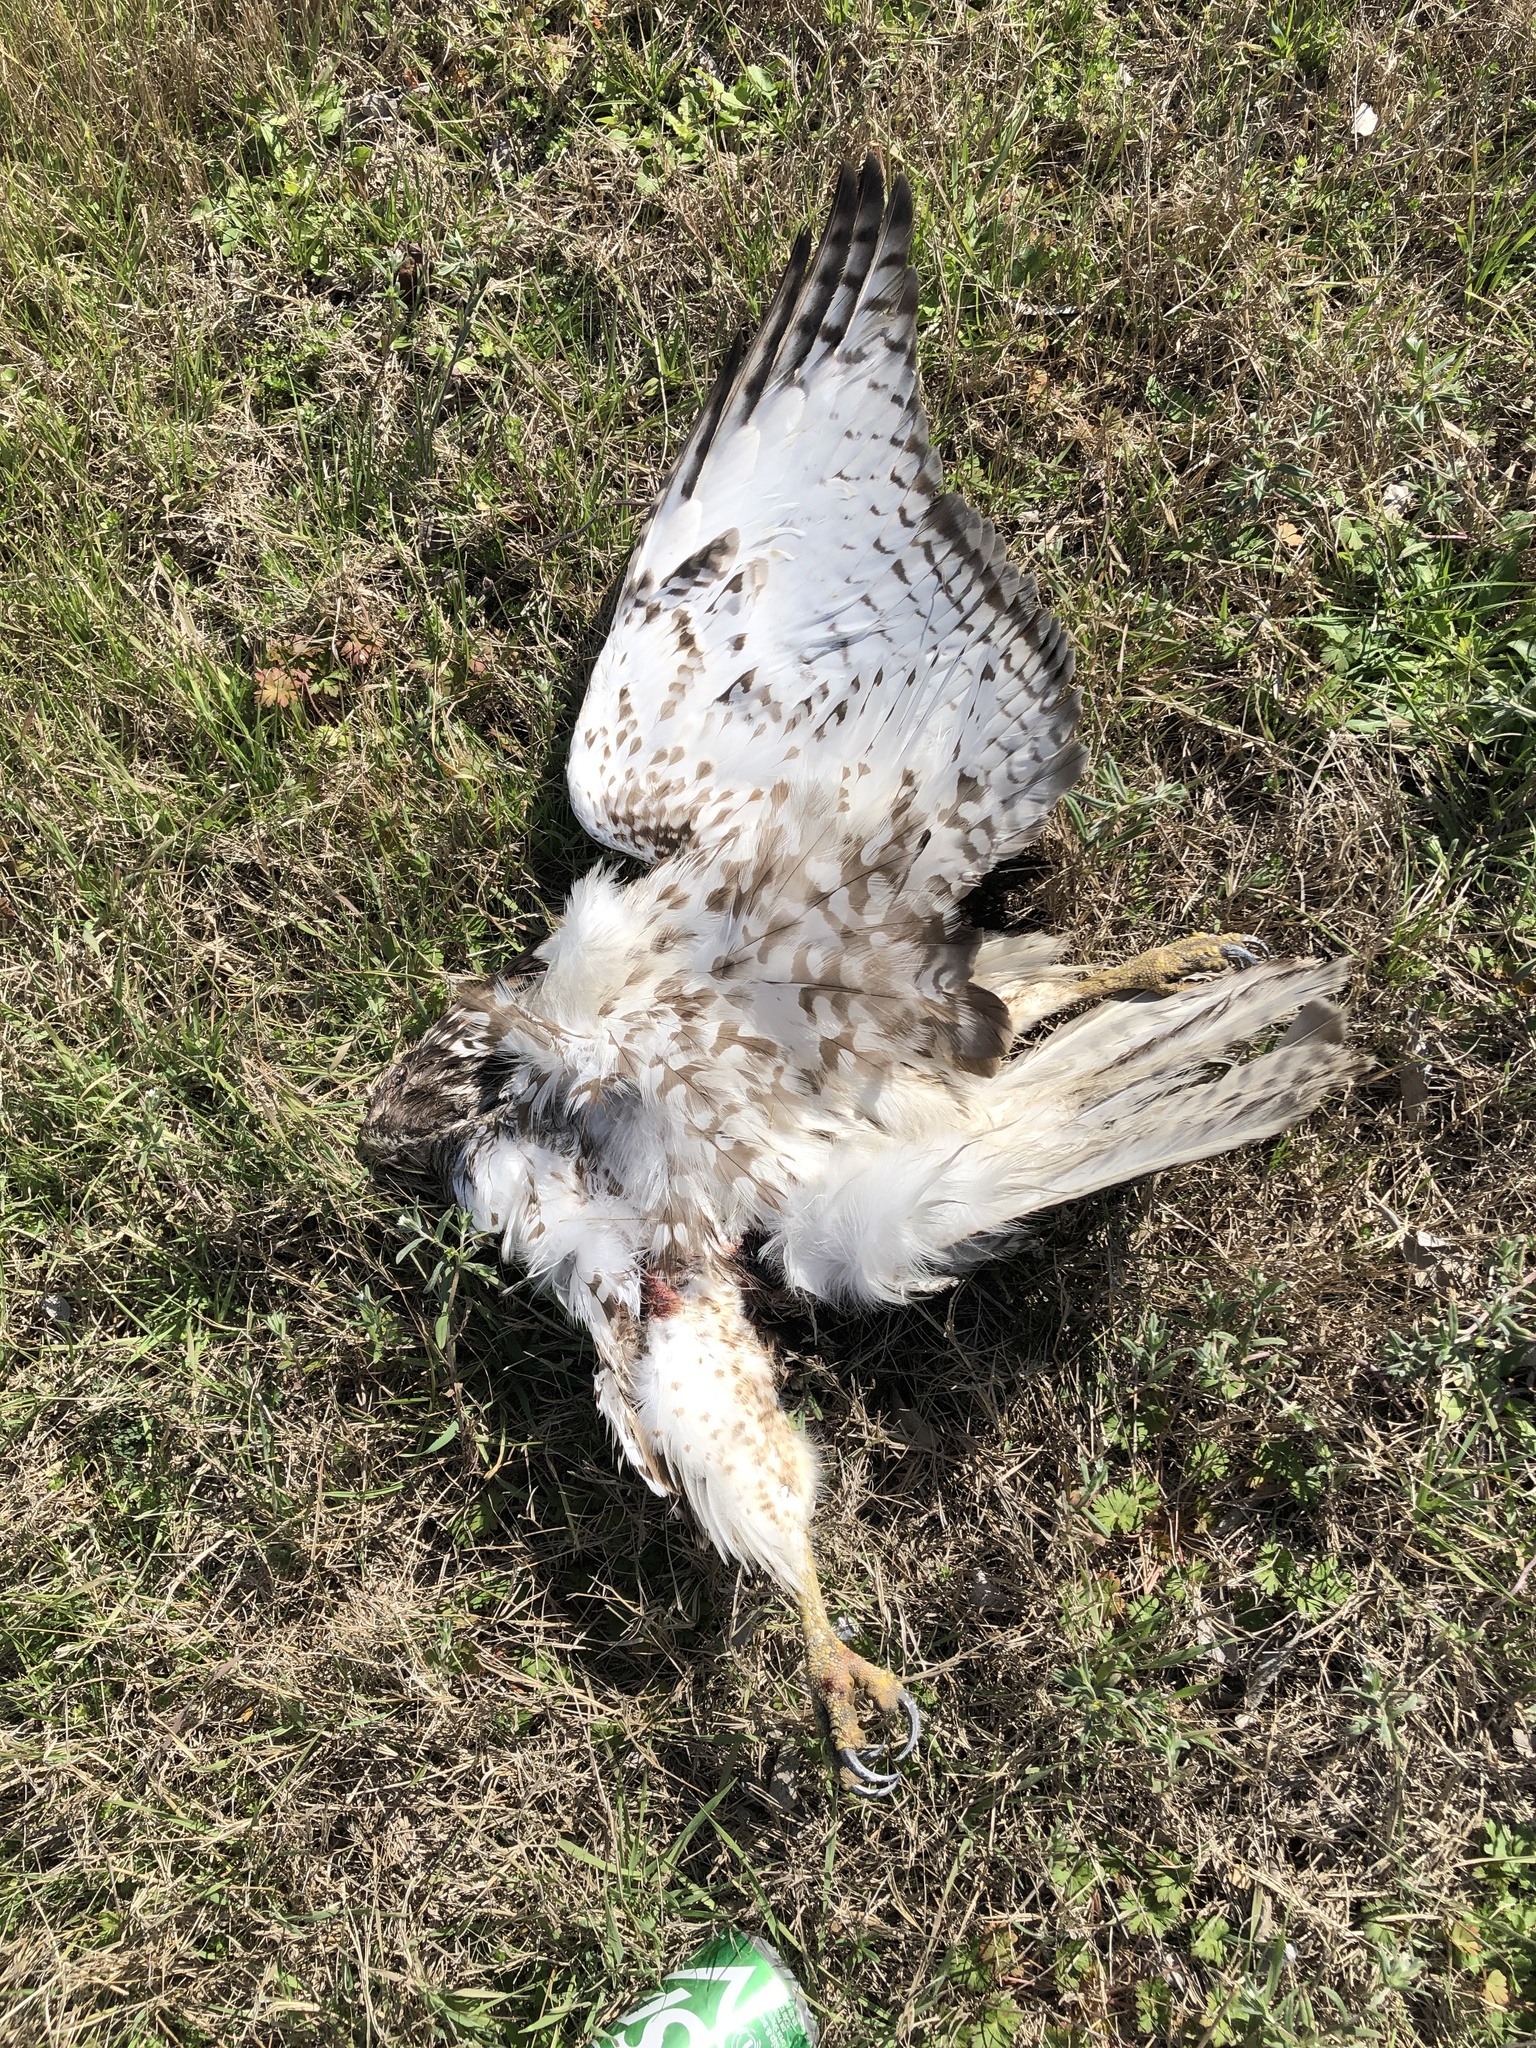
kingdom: Animalia
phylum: Chordata
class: Aves
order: Accipitriformes
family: Accipitridae
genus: Buteo
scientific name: Buteo jamaicensis
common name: Red-tailed hawk
